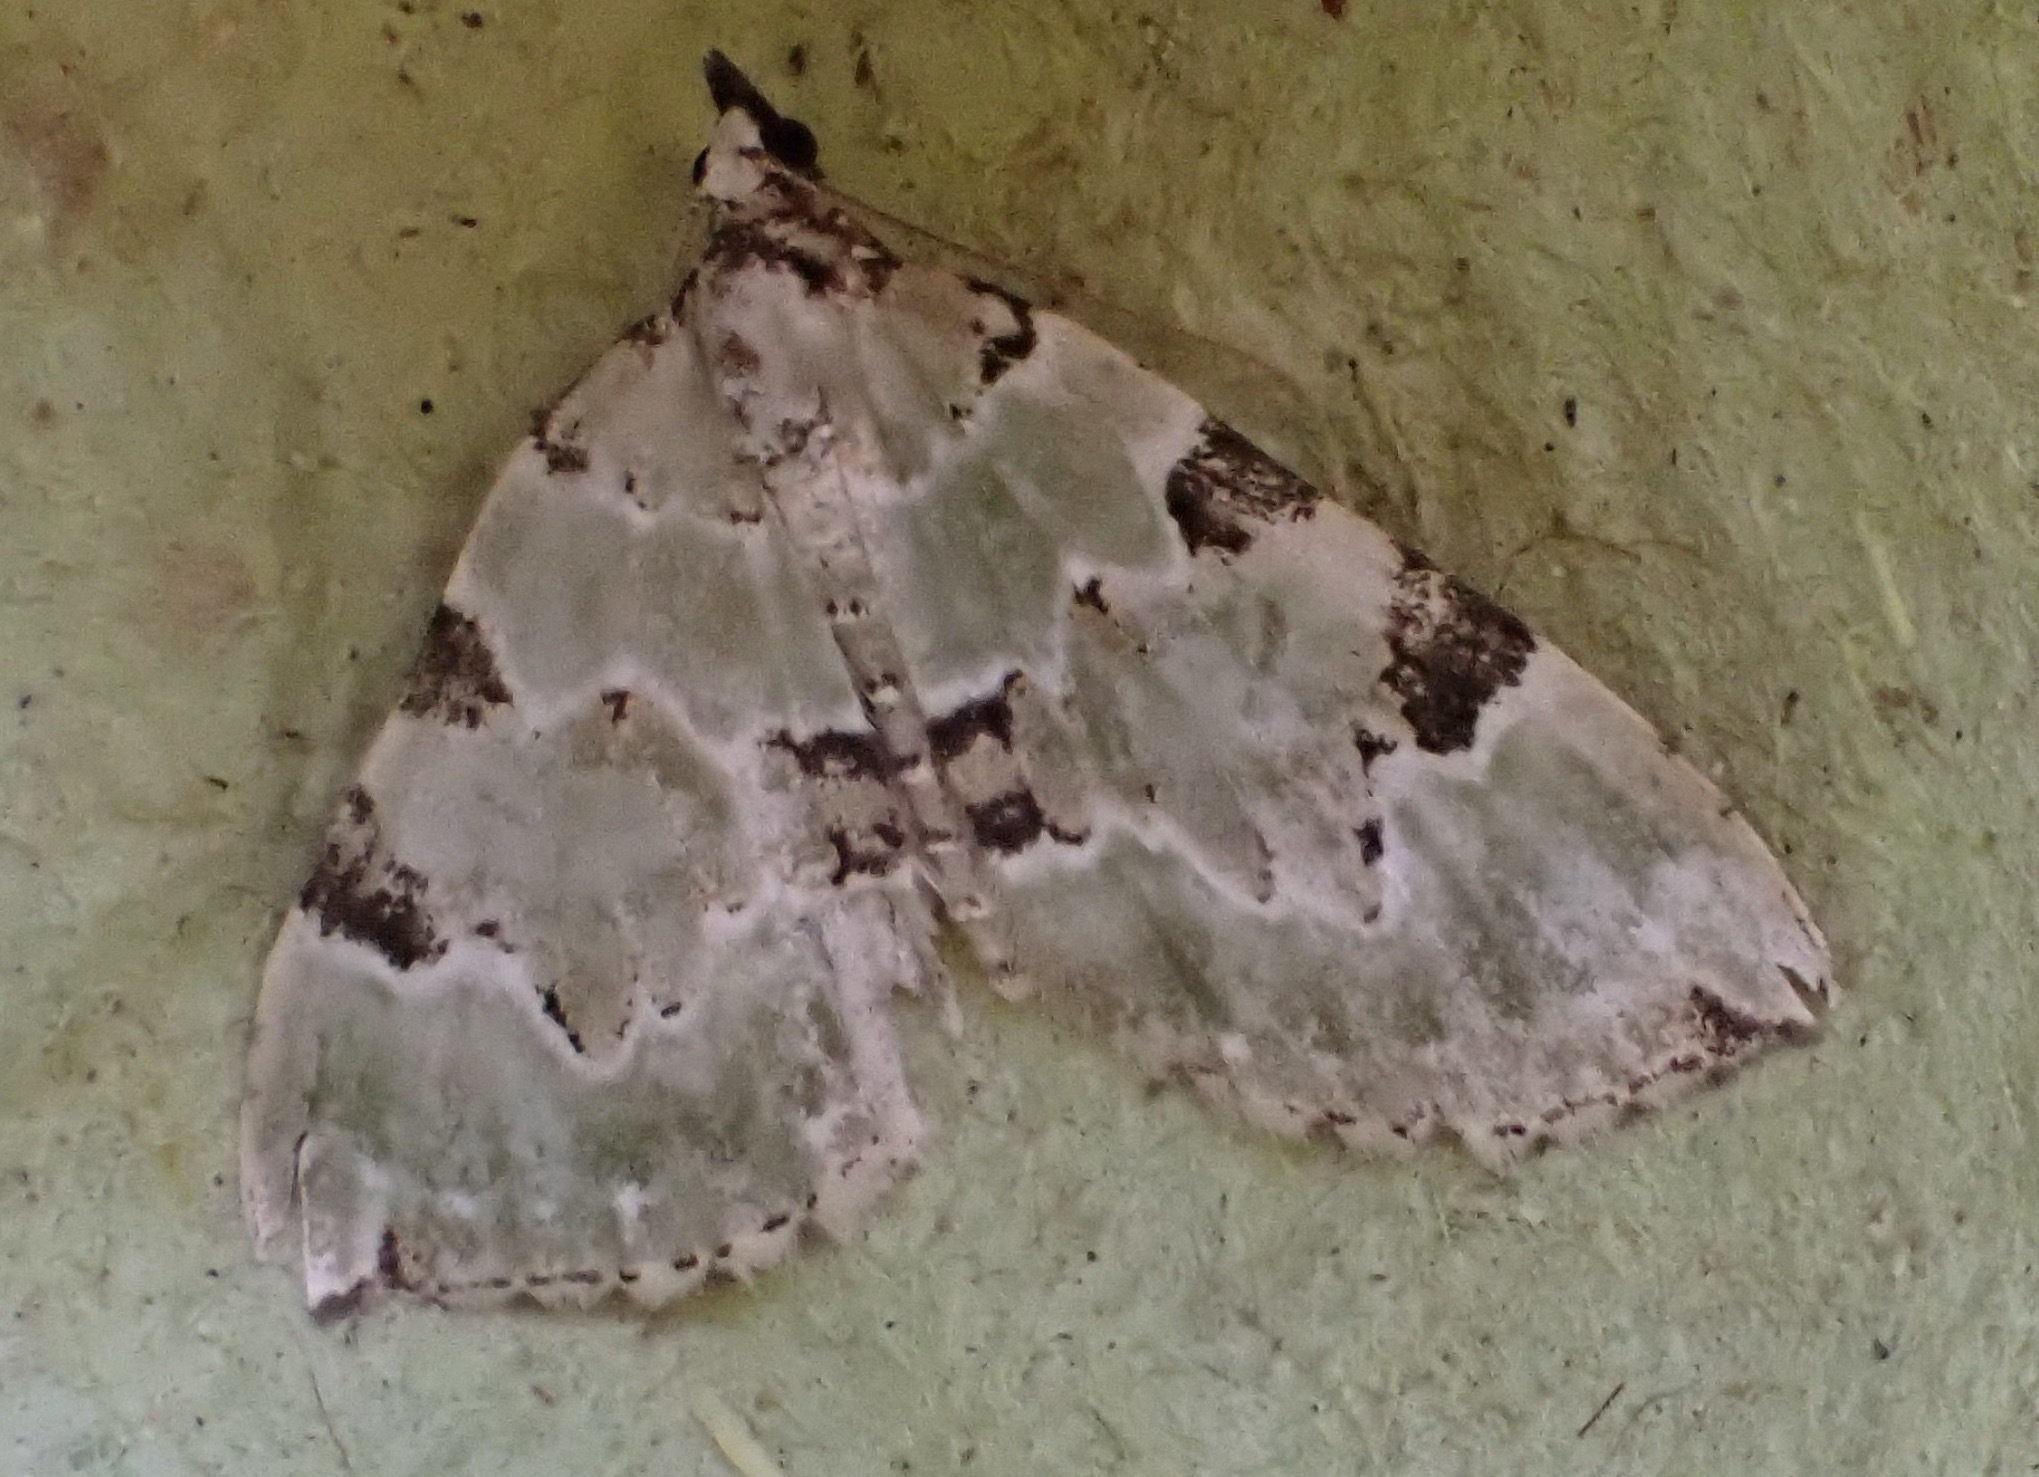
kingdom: Animalia
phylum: Arthropoda
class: Insecta
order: Lepidoptera
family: Geometridae
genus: Colostygia
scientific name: Colostygia pectinataria
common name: Green carpet
